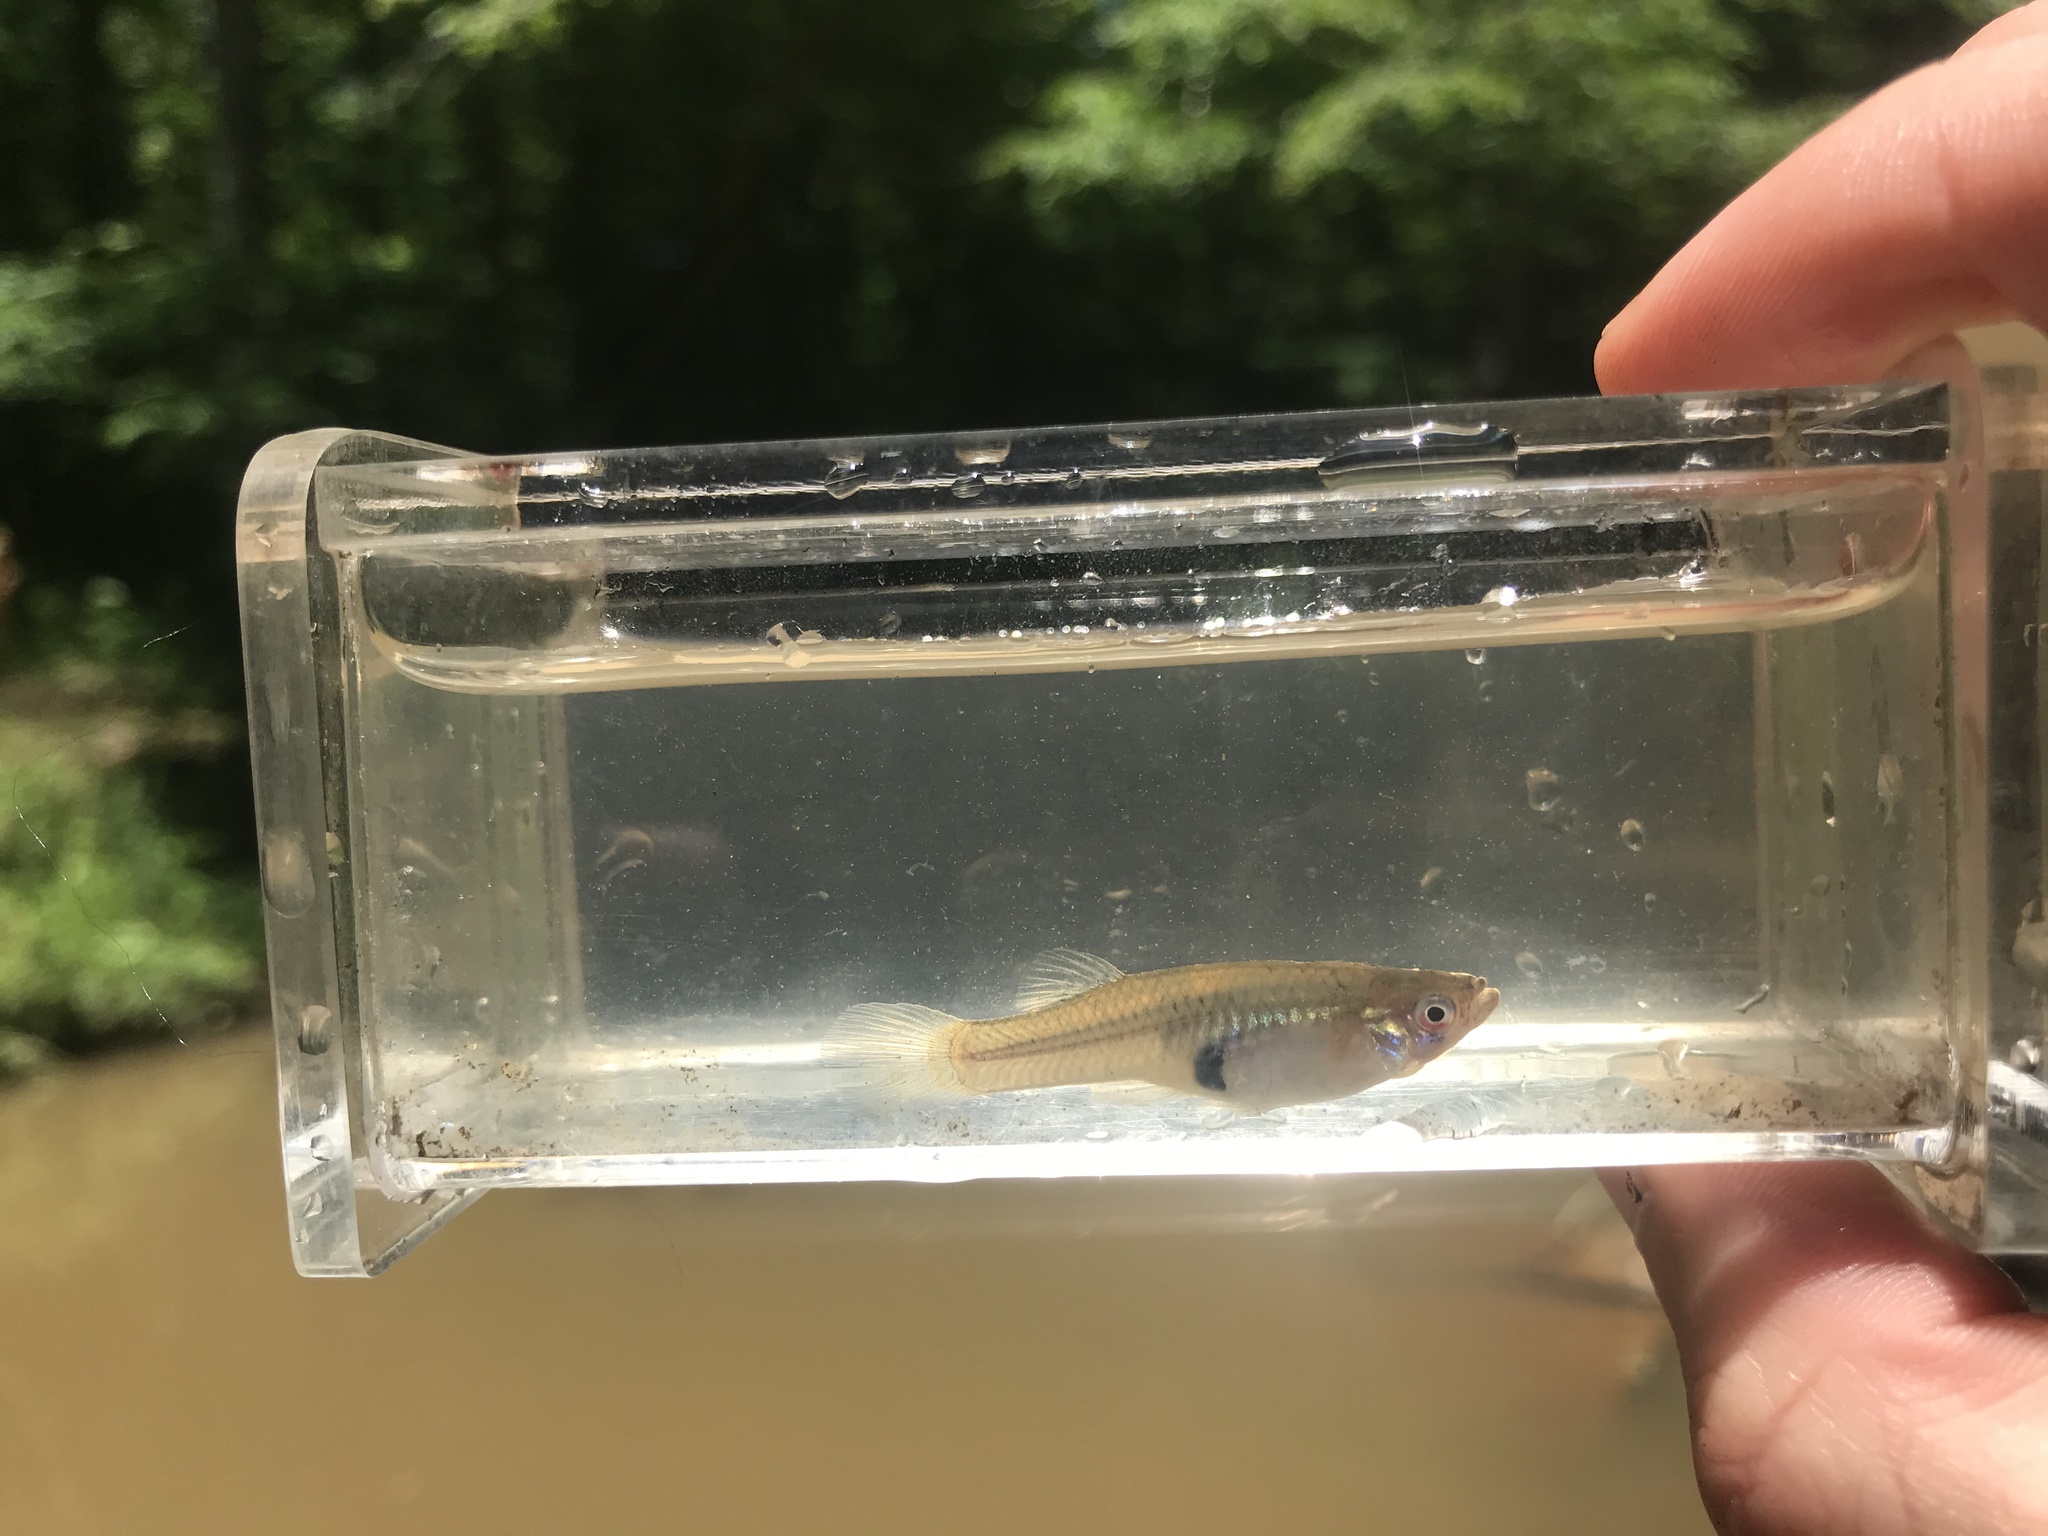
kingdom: Animalia
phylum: Chordata
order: Cyprinodontiformes
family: Poeciliidae
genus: Gambusia
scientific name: Gambusia holbrooki
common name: Eastern mosquitofish
